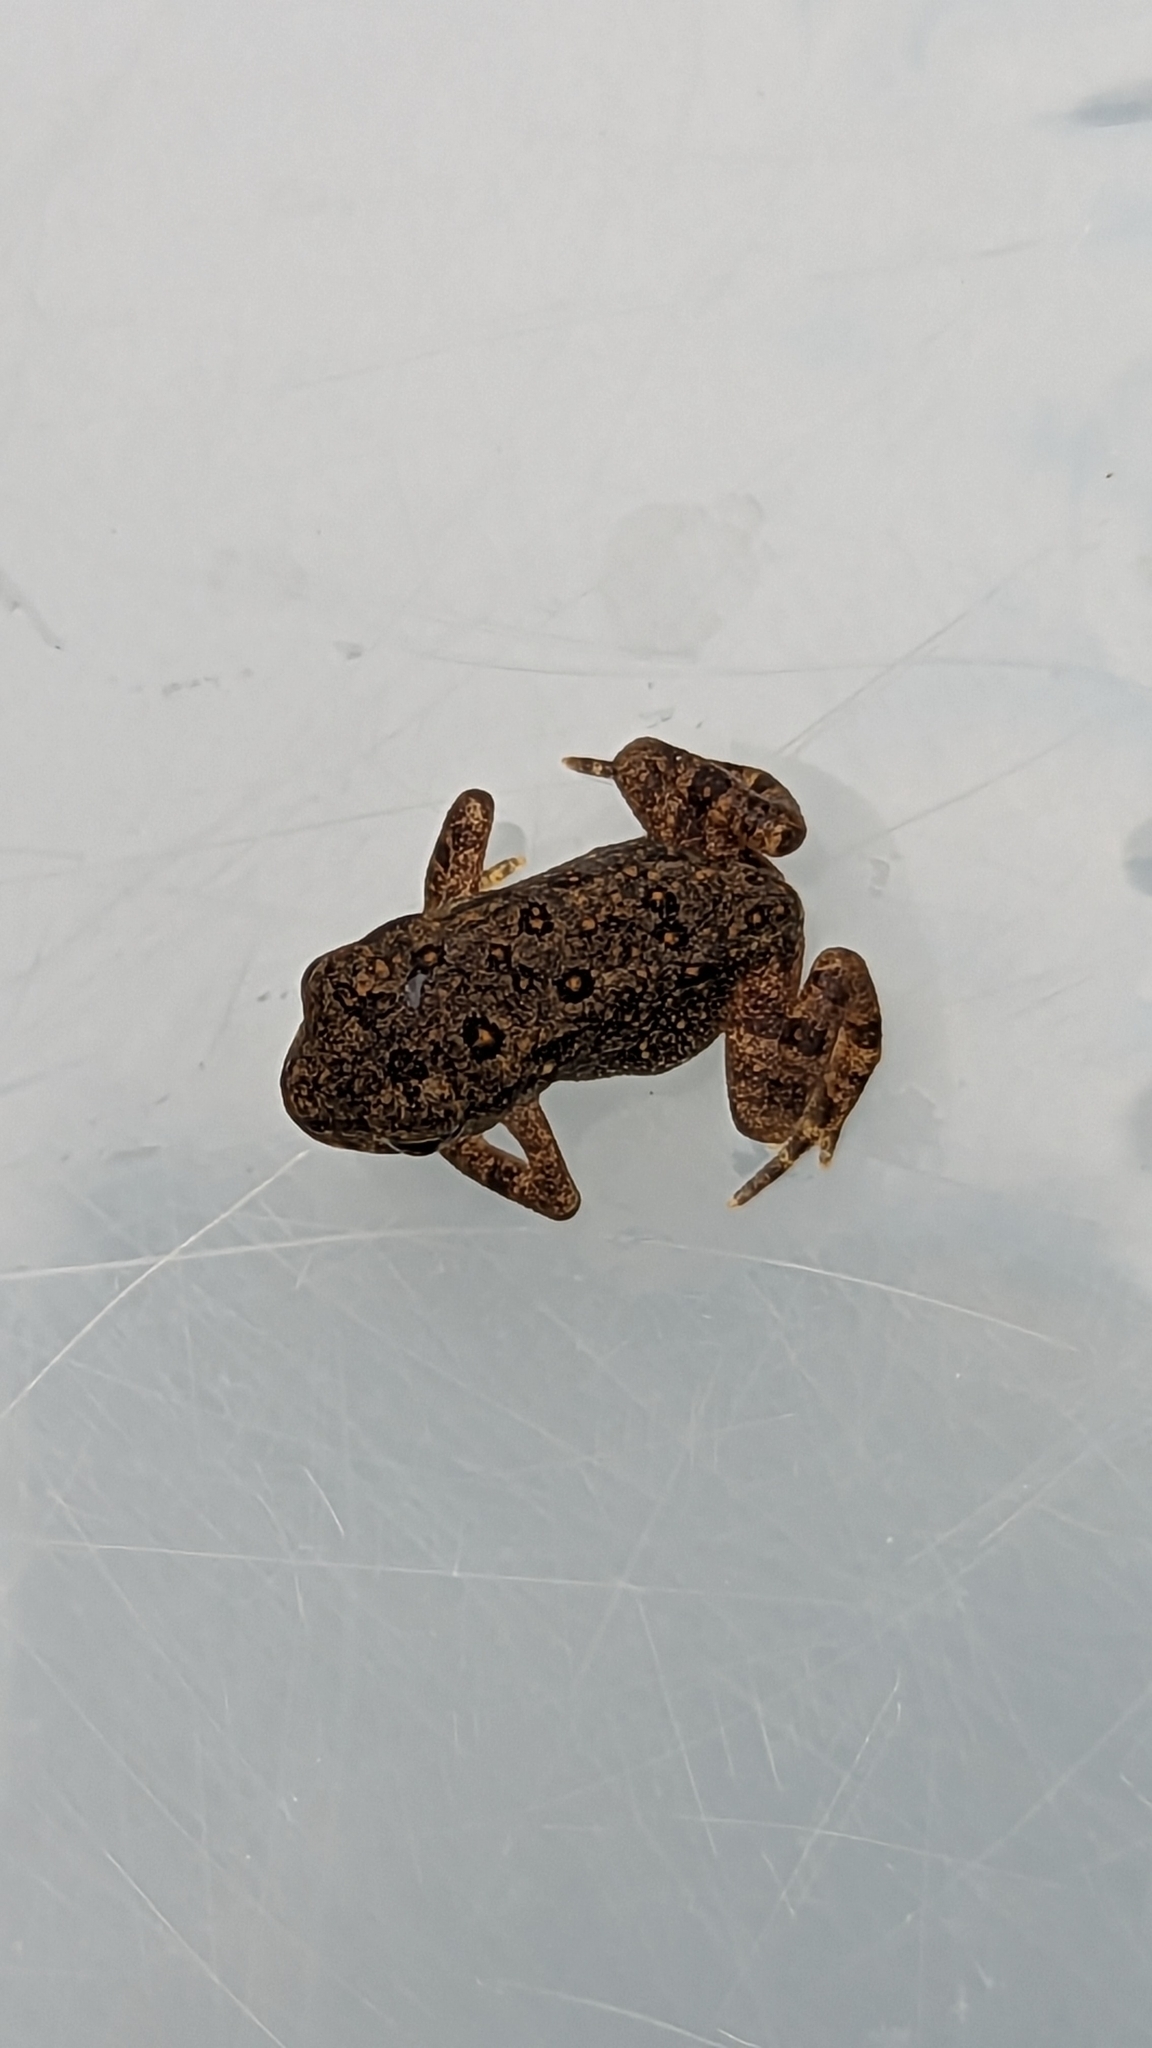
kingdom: Animalia
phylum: Chordata
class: Amphibia
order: Anura
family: Bufonidae
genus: Anaxyrus
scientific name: Anaxyrus americanus
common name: American toad
